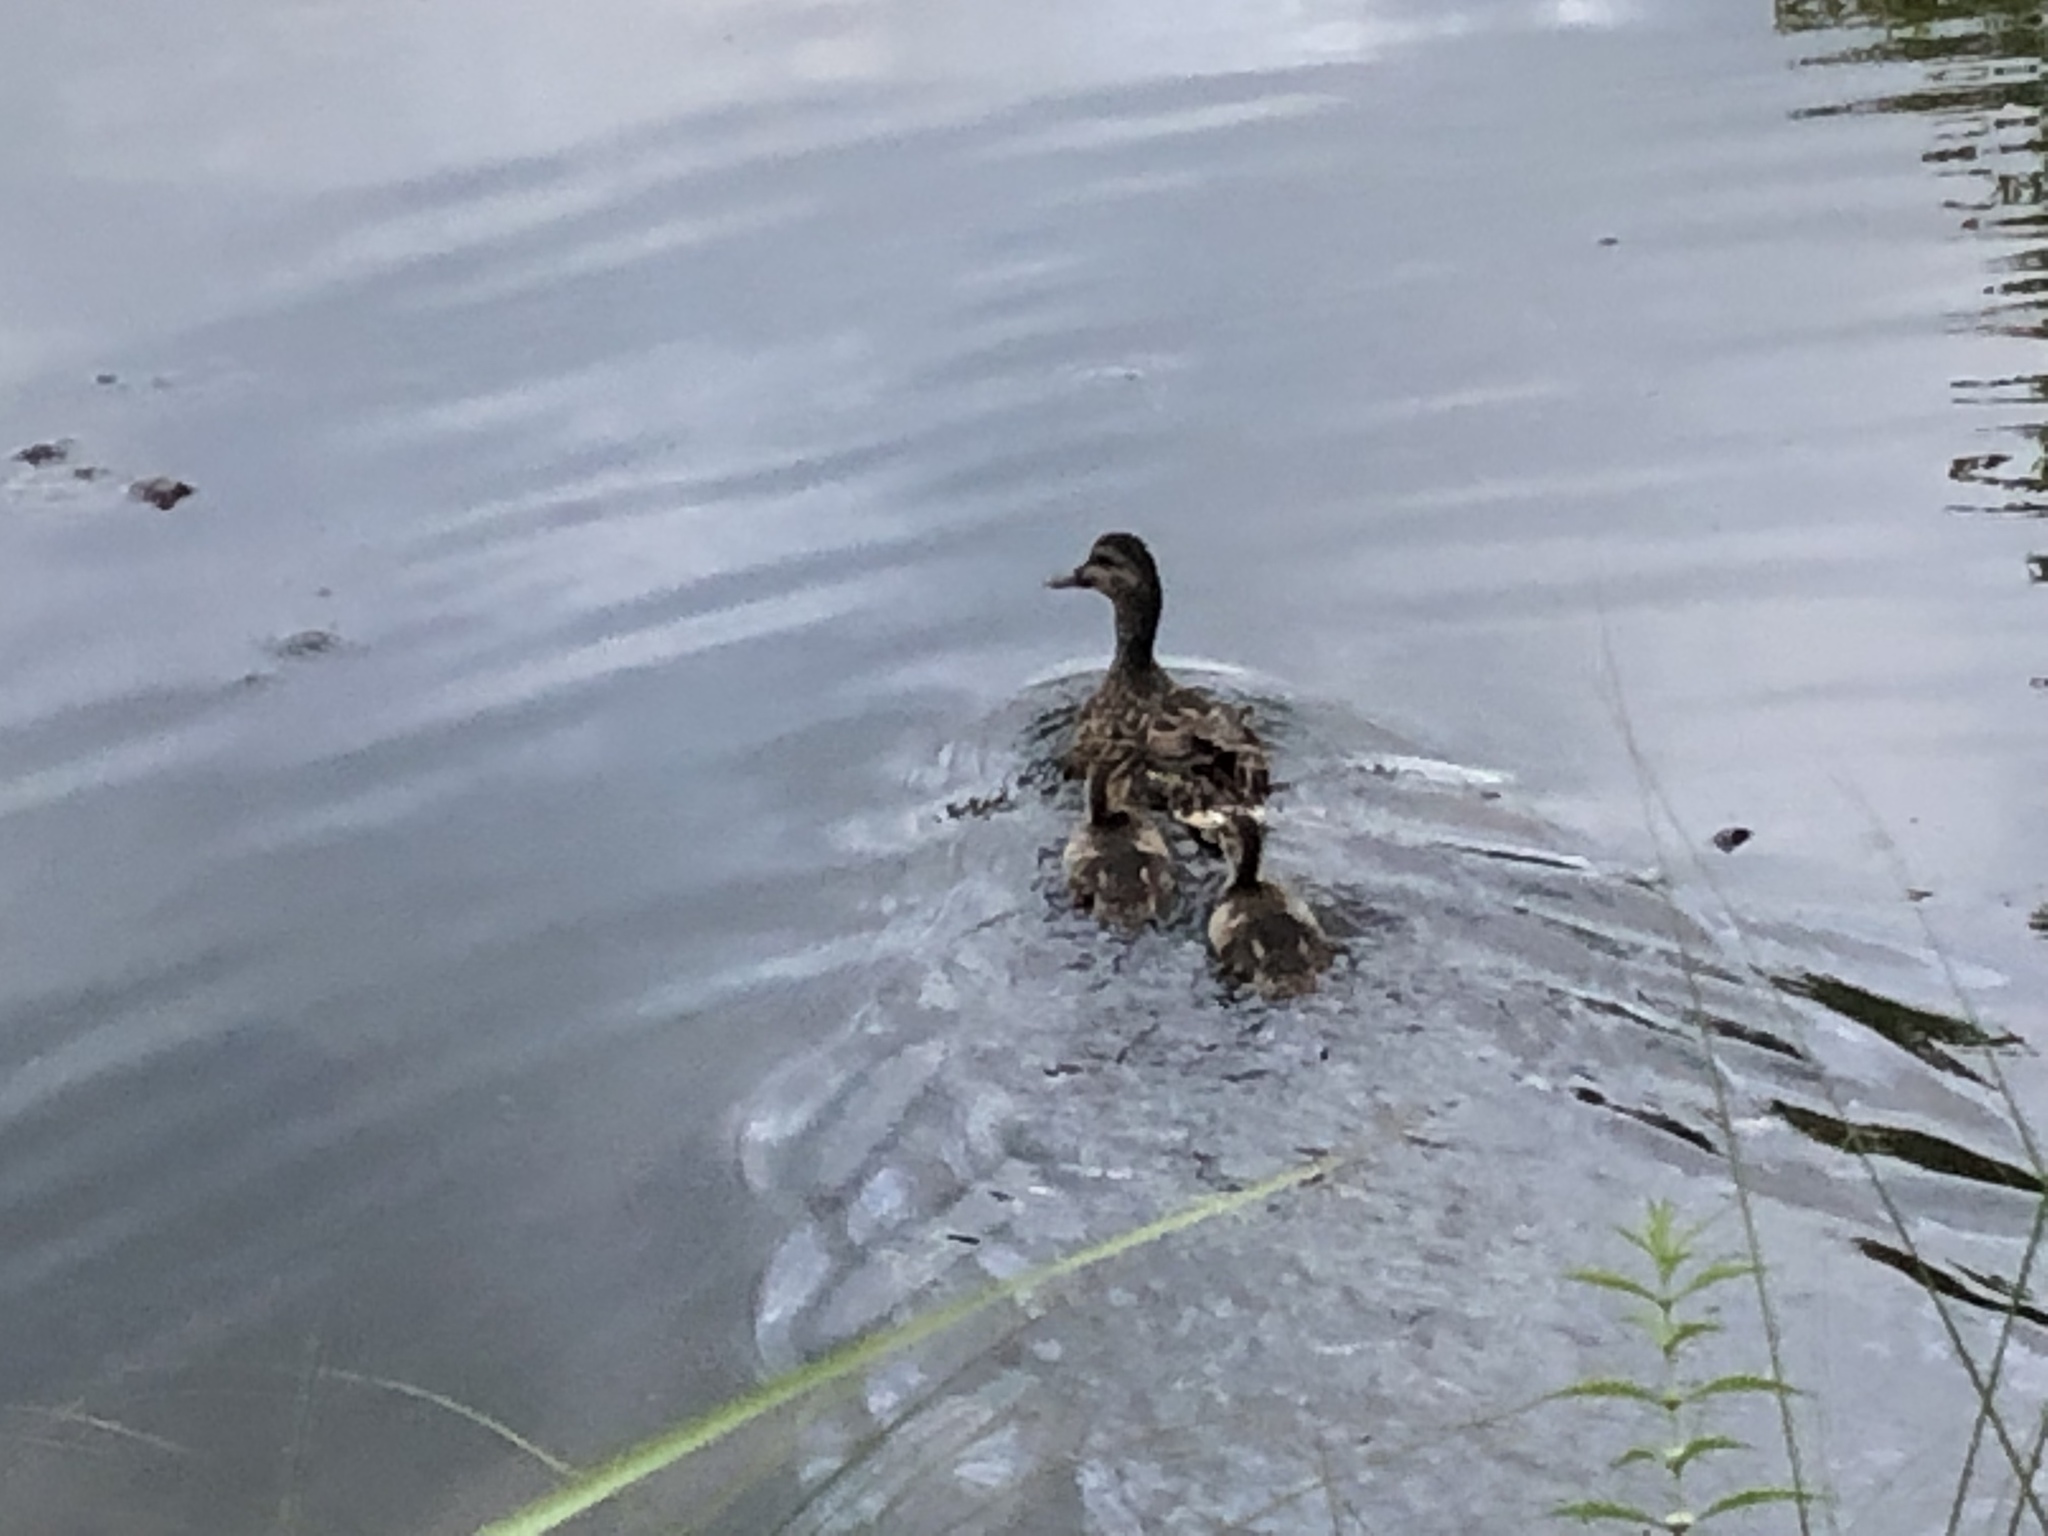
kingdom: Animalia
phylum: Chordata
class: Aves
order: Anseriformes
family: Anatidae
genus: Anas
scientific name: Anas platyrhynchos
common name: Mallard
